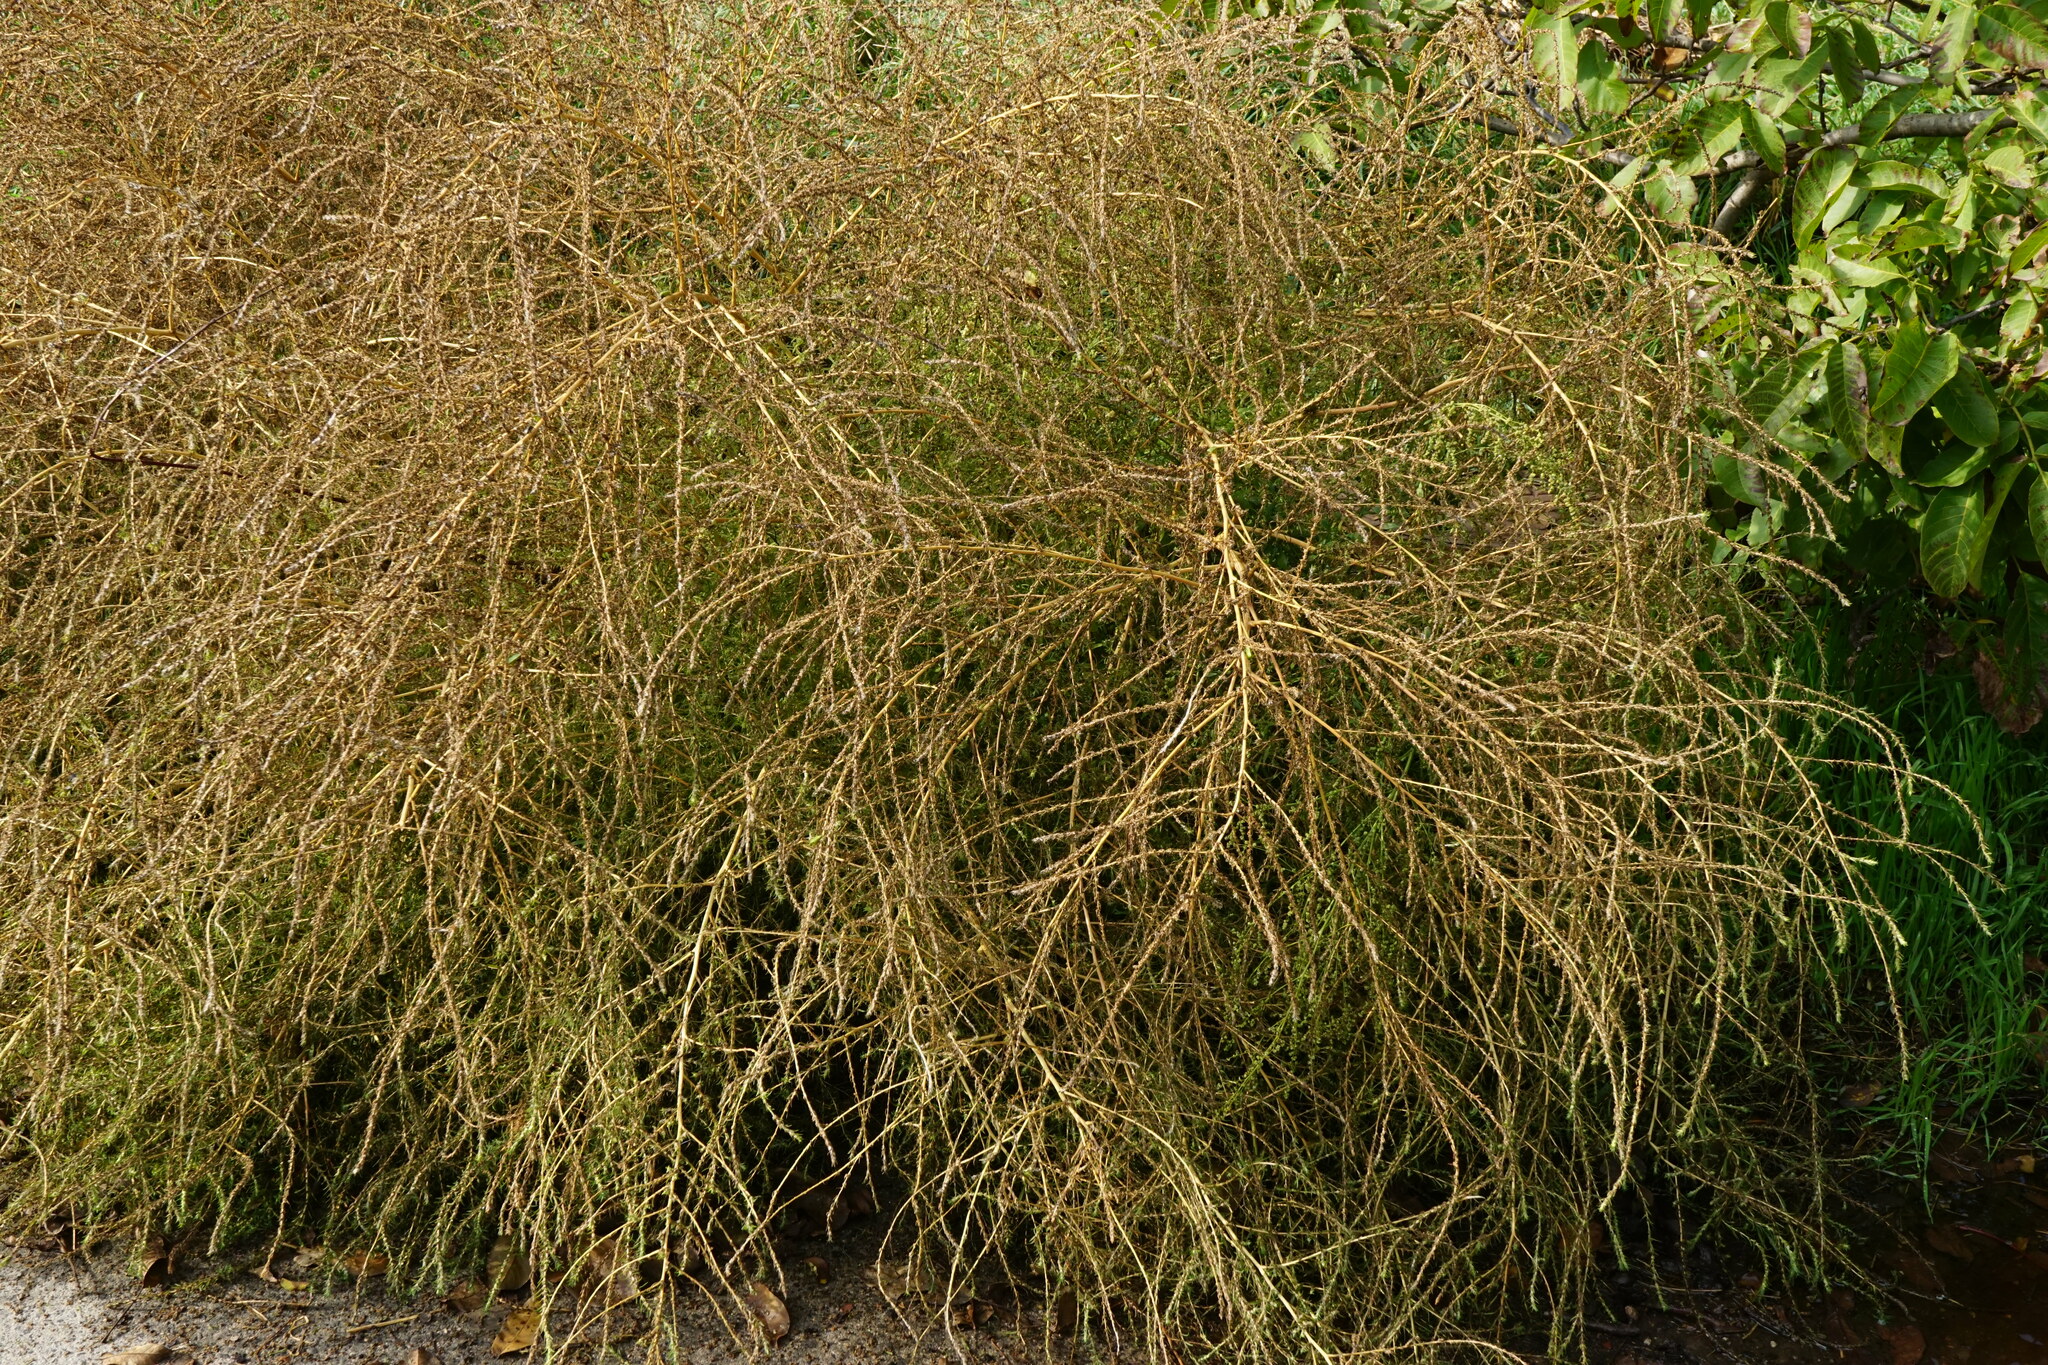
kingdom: Plantae
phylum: Tracheophyta
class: Magnoliopsida
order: Caryophyllales
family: Amaranthaceae
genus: Bassia
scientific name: Bassia scoparia
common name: Belvedere
